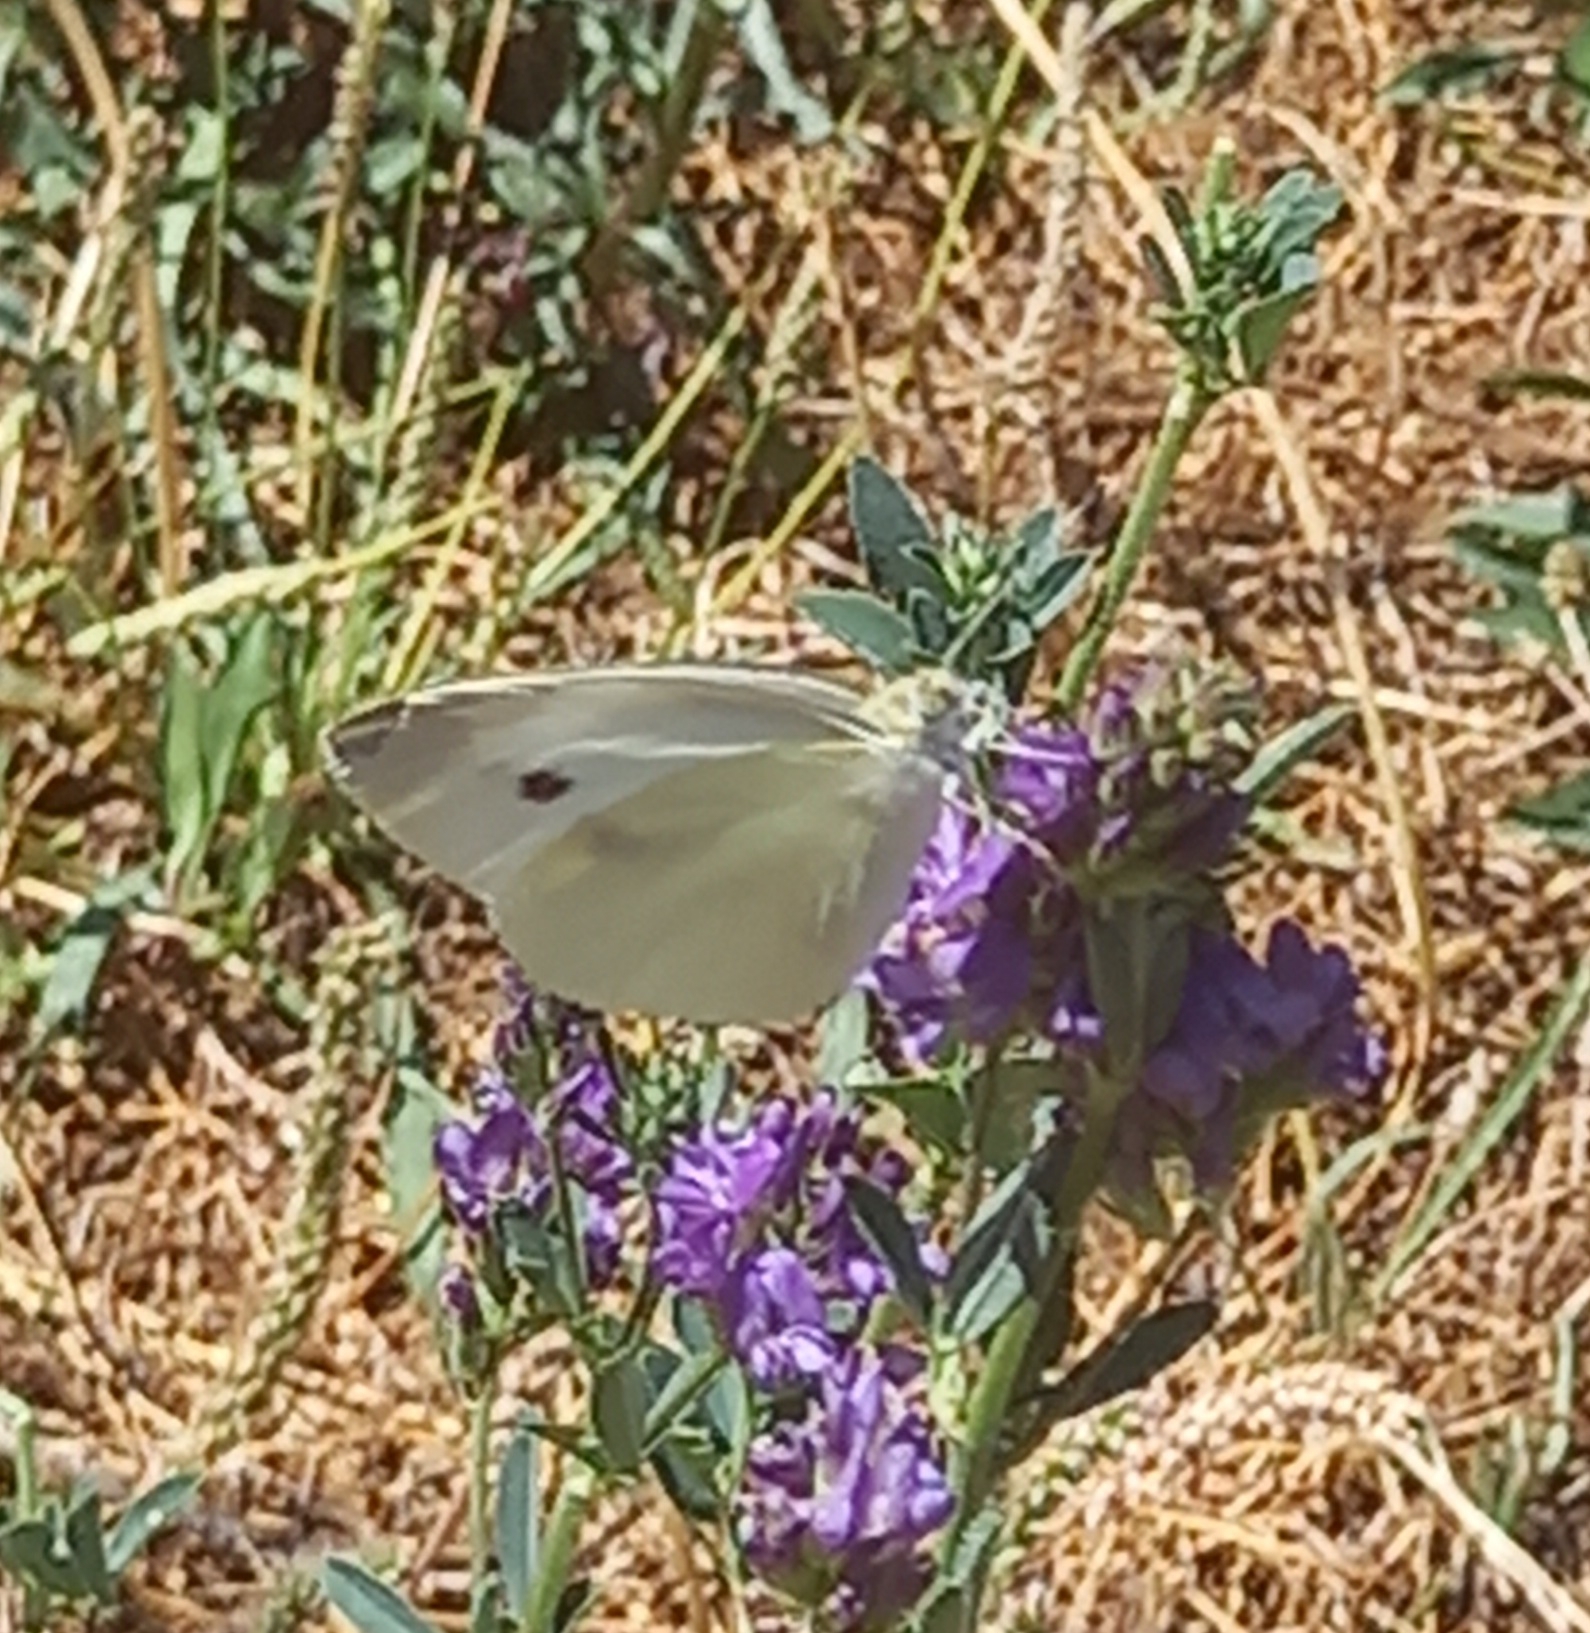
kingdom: Animalia
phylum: Arthropoda
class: Insecta
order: Lepidoptera
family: Pieridae
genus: Pieris
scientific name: Pieris rapae
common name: Small white
